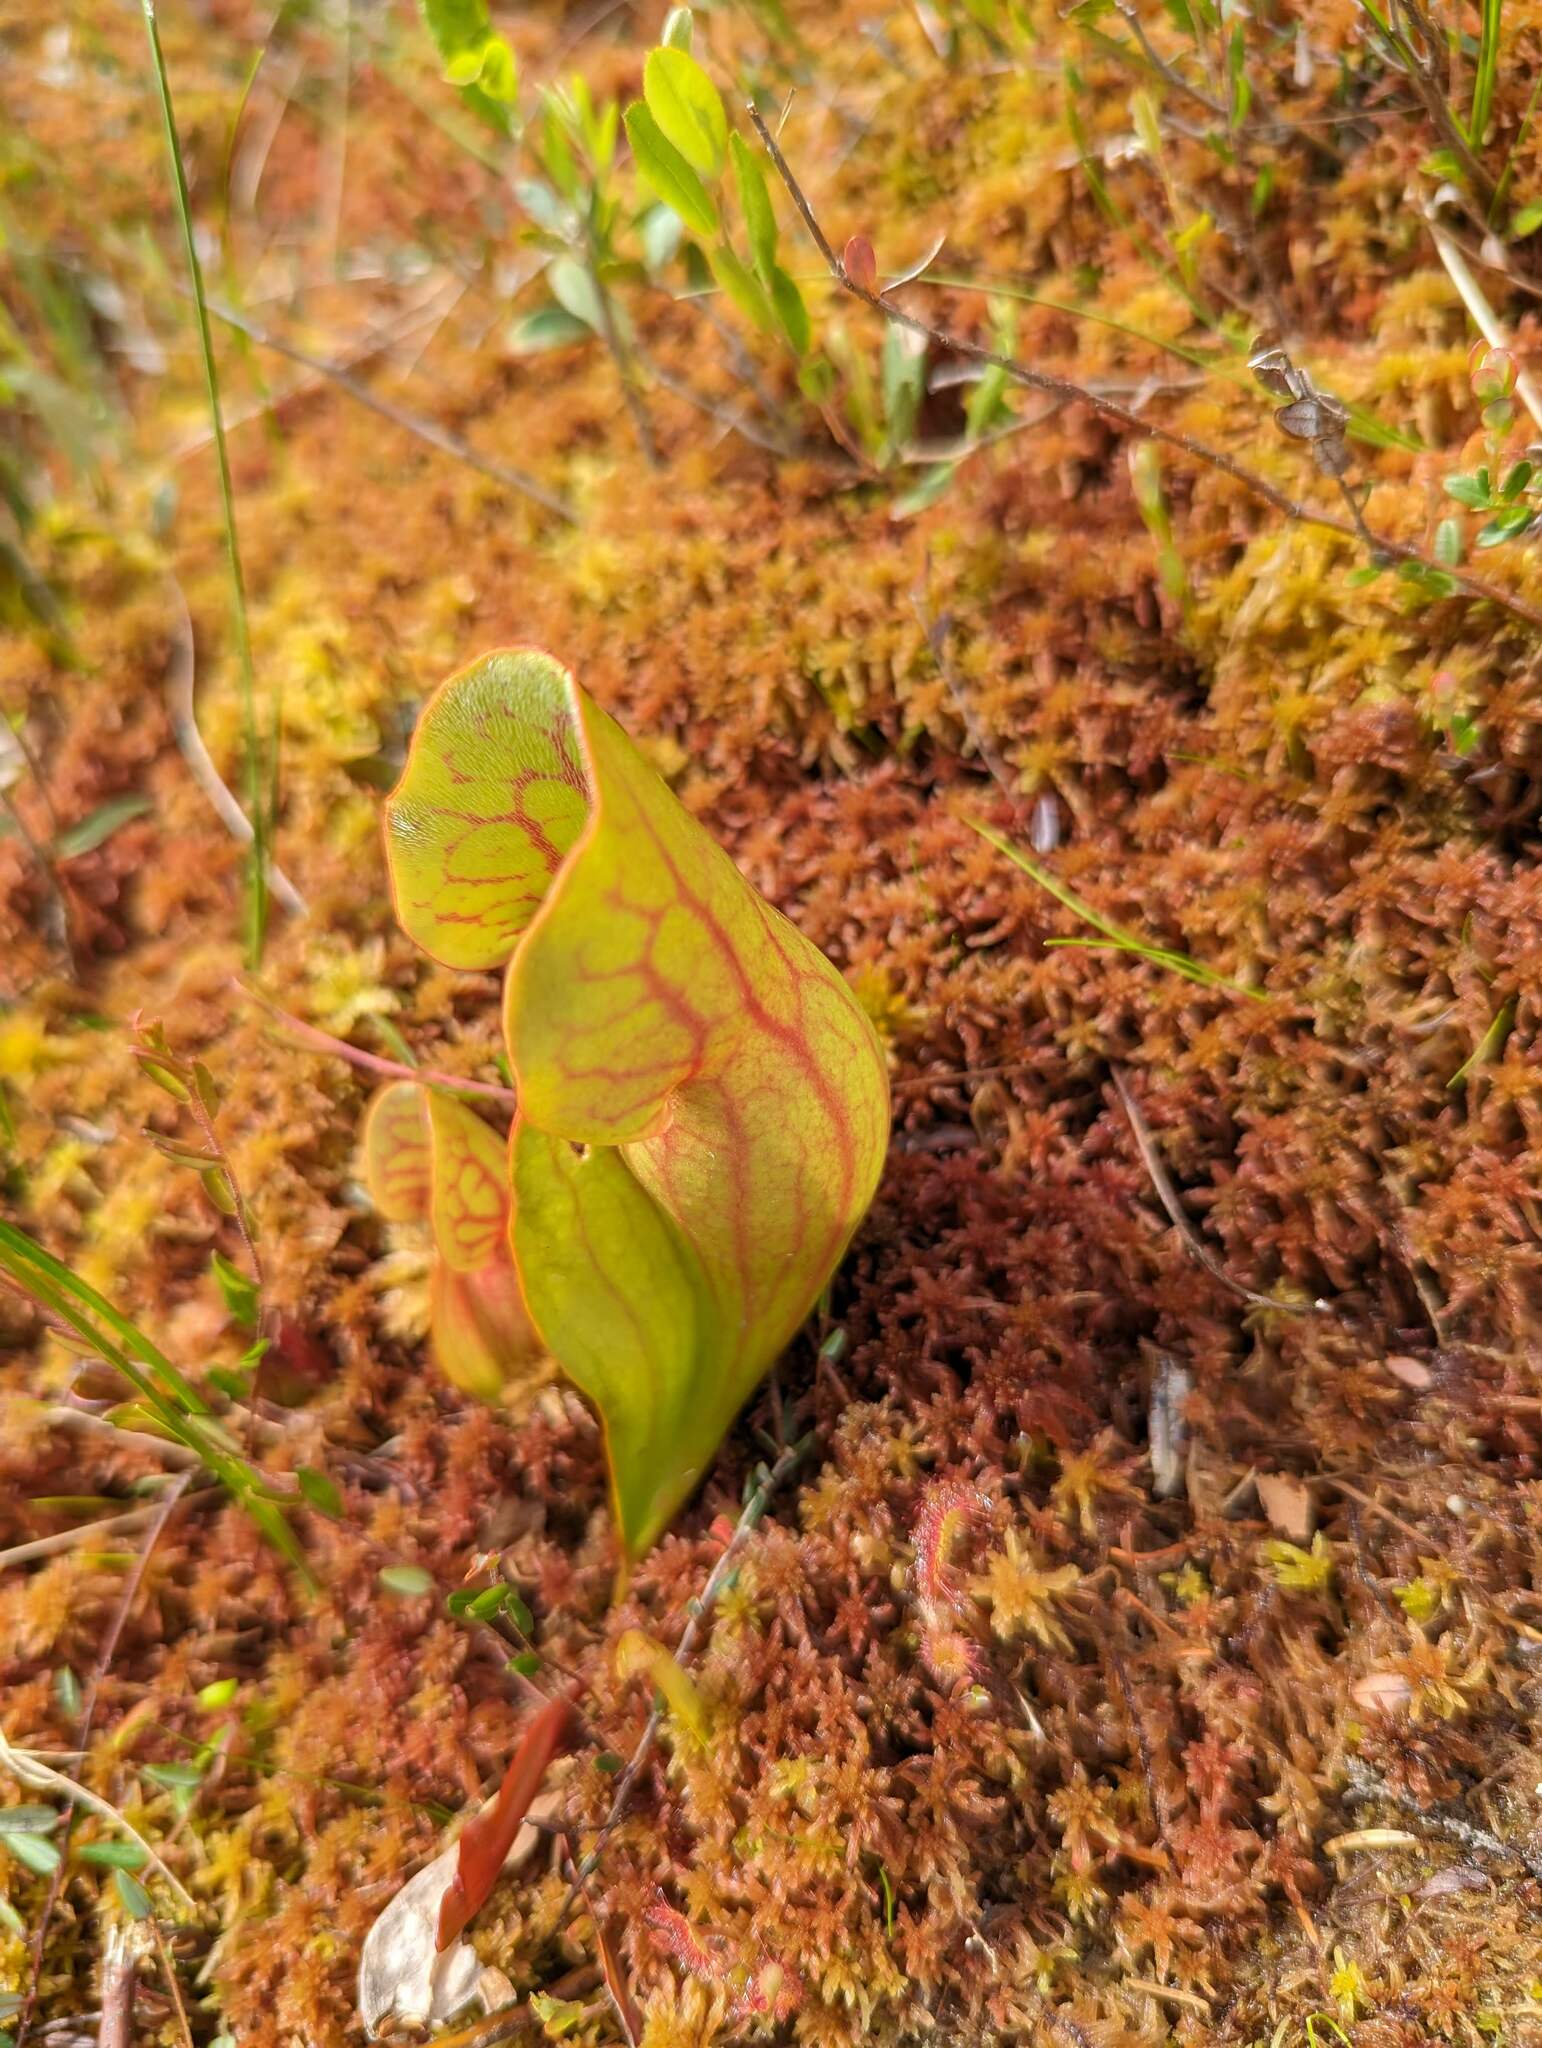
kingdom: Plantae
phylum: Tracheophyta
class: Magnoliopsida
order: Ericales
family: Sarraceniaceae
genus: Sarracenia
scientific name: Sarracenia purpurea
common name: Pitcherplant
